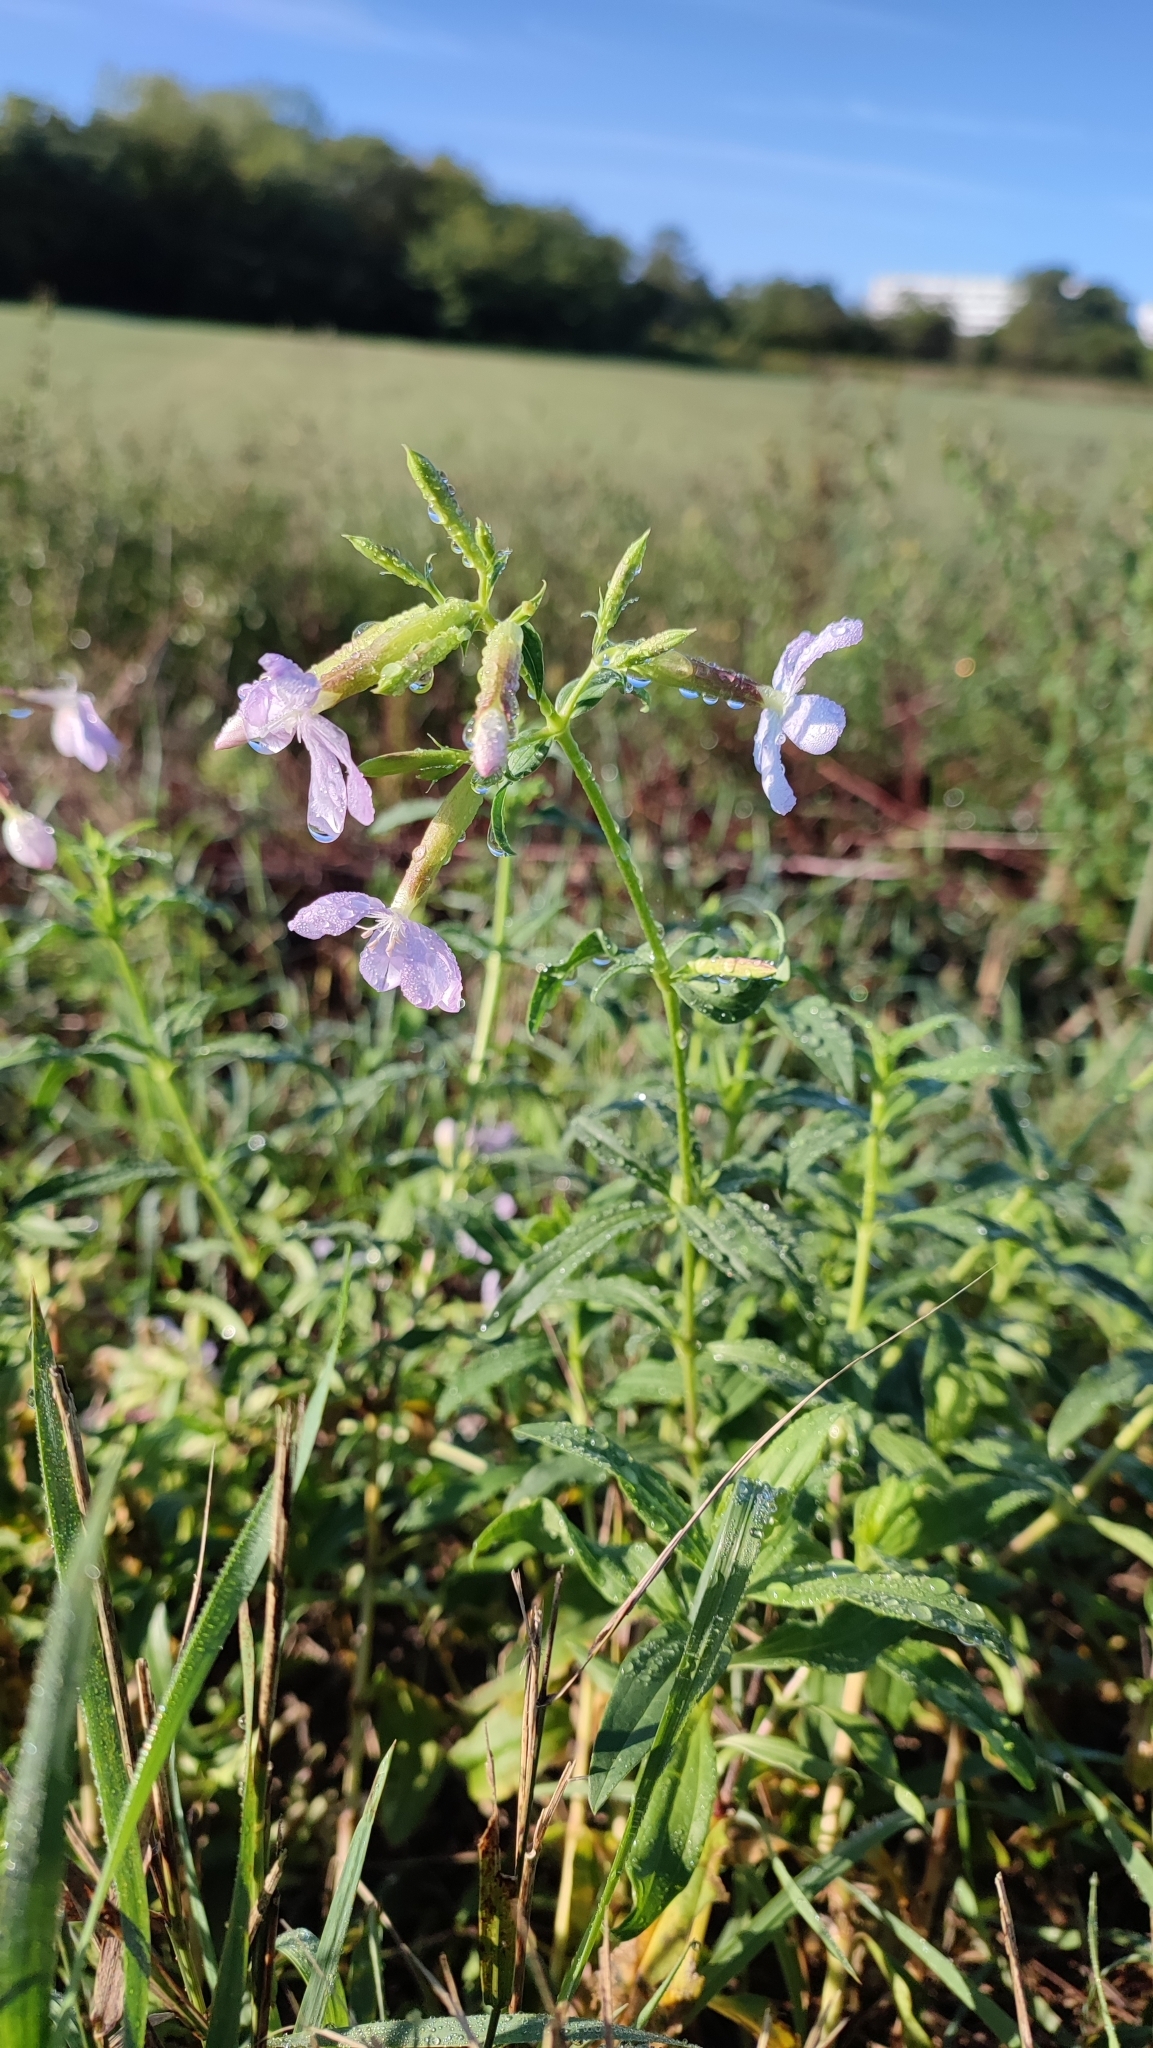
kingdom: Plantae
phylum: Tracheophyta
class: Magnoliopsida
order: Caryophyllales
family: Caryophyllaceae
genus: Saponaria
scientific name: Saponaria officinalis
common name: Soapwort
